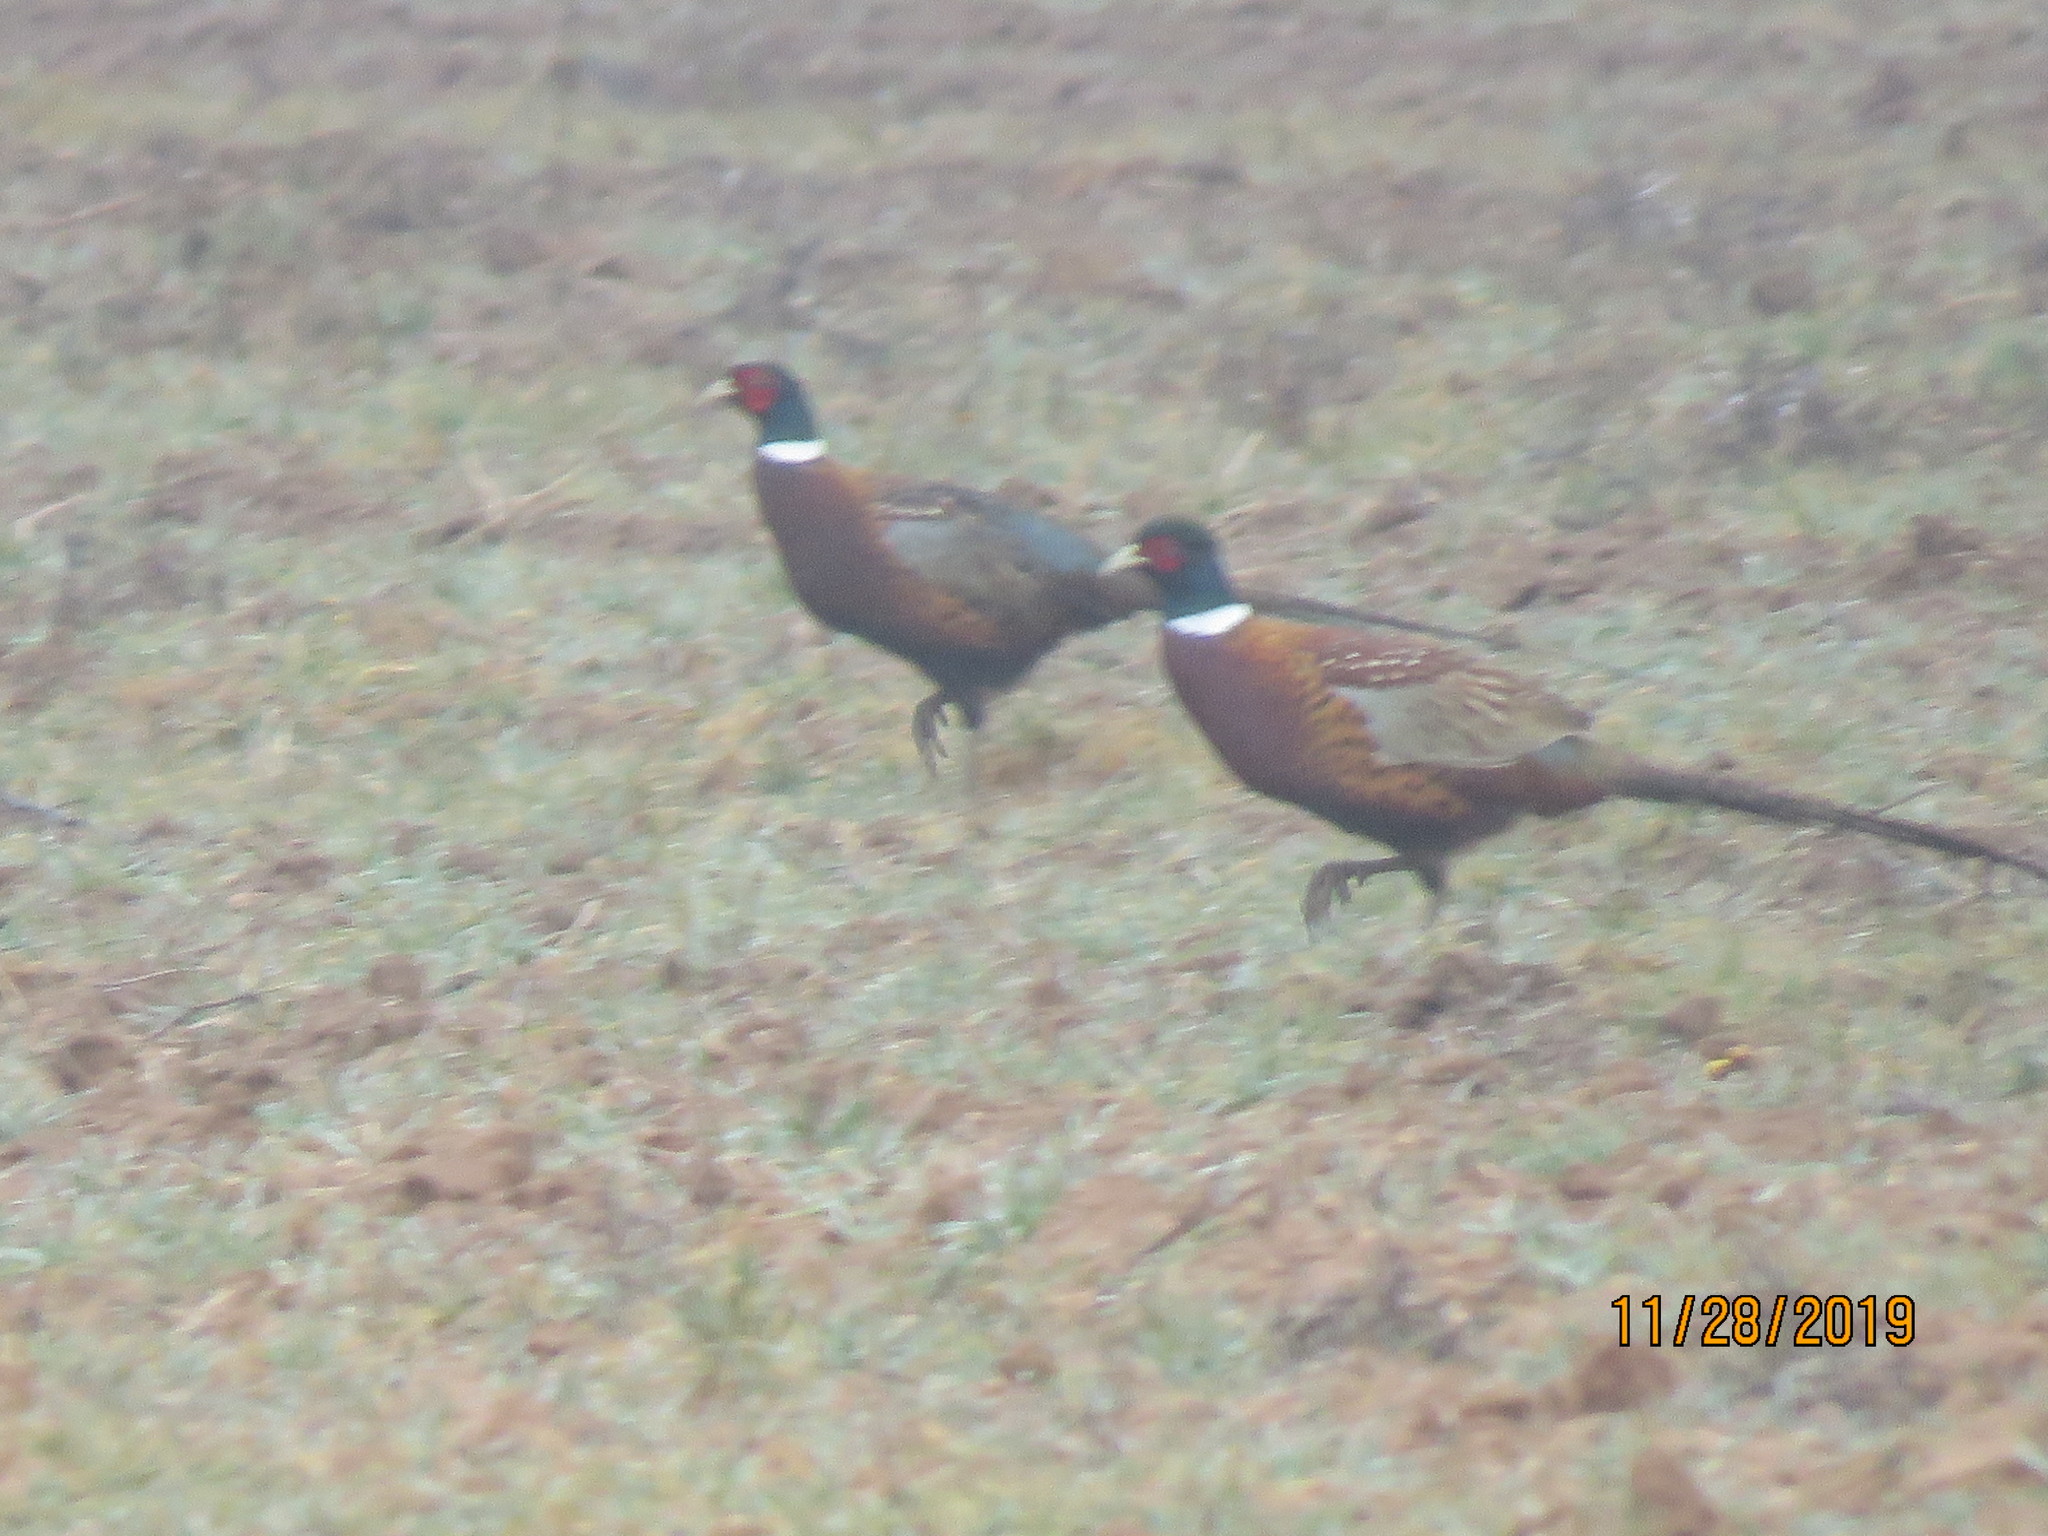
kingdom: Animalia
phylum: Chordata
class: Aves
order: Galliformes
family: Phasianidae
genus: Phasianus
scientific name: Phasianus colchicus
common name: Common pheasant
